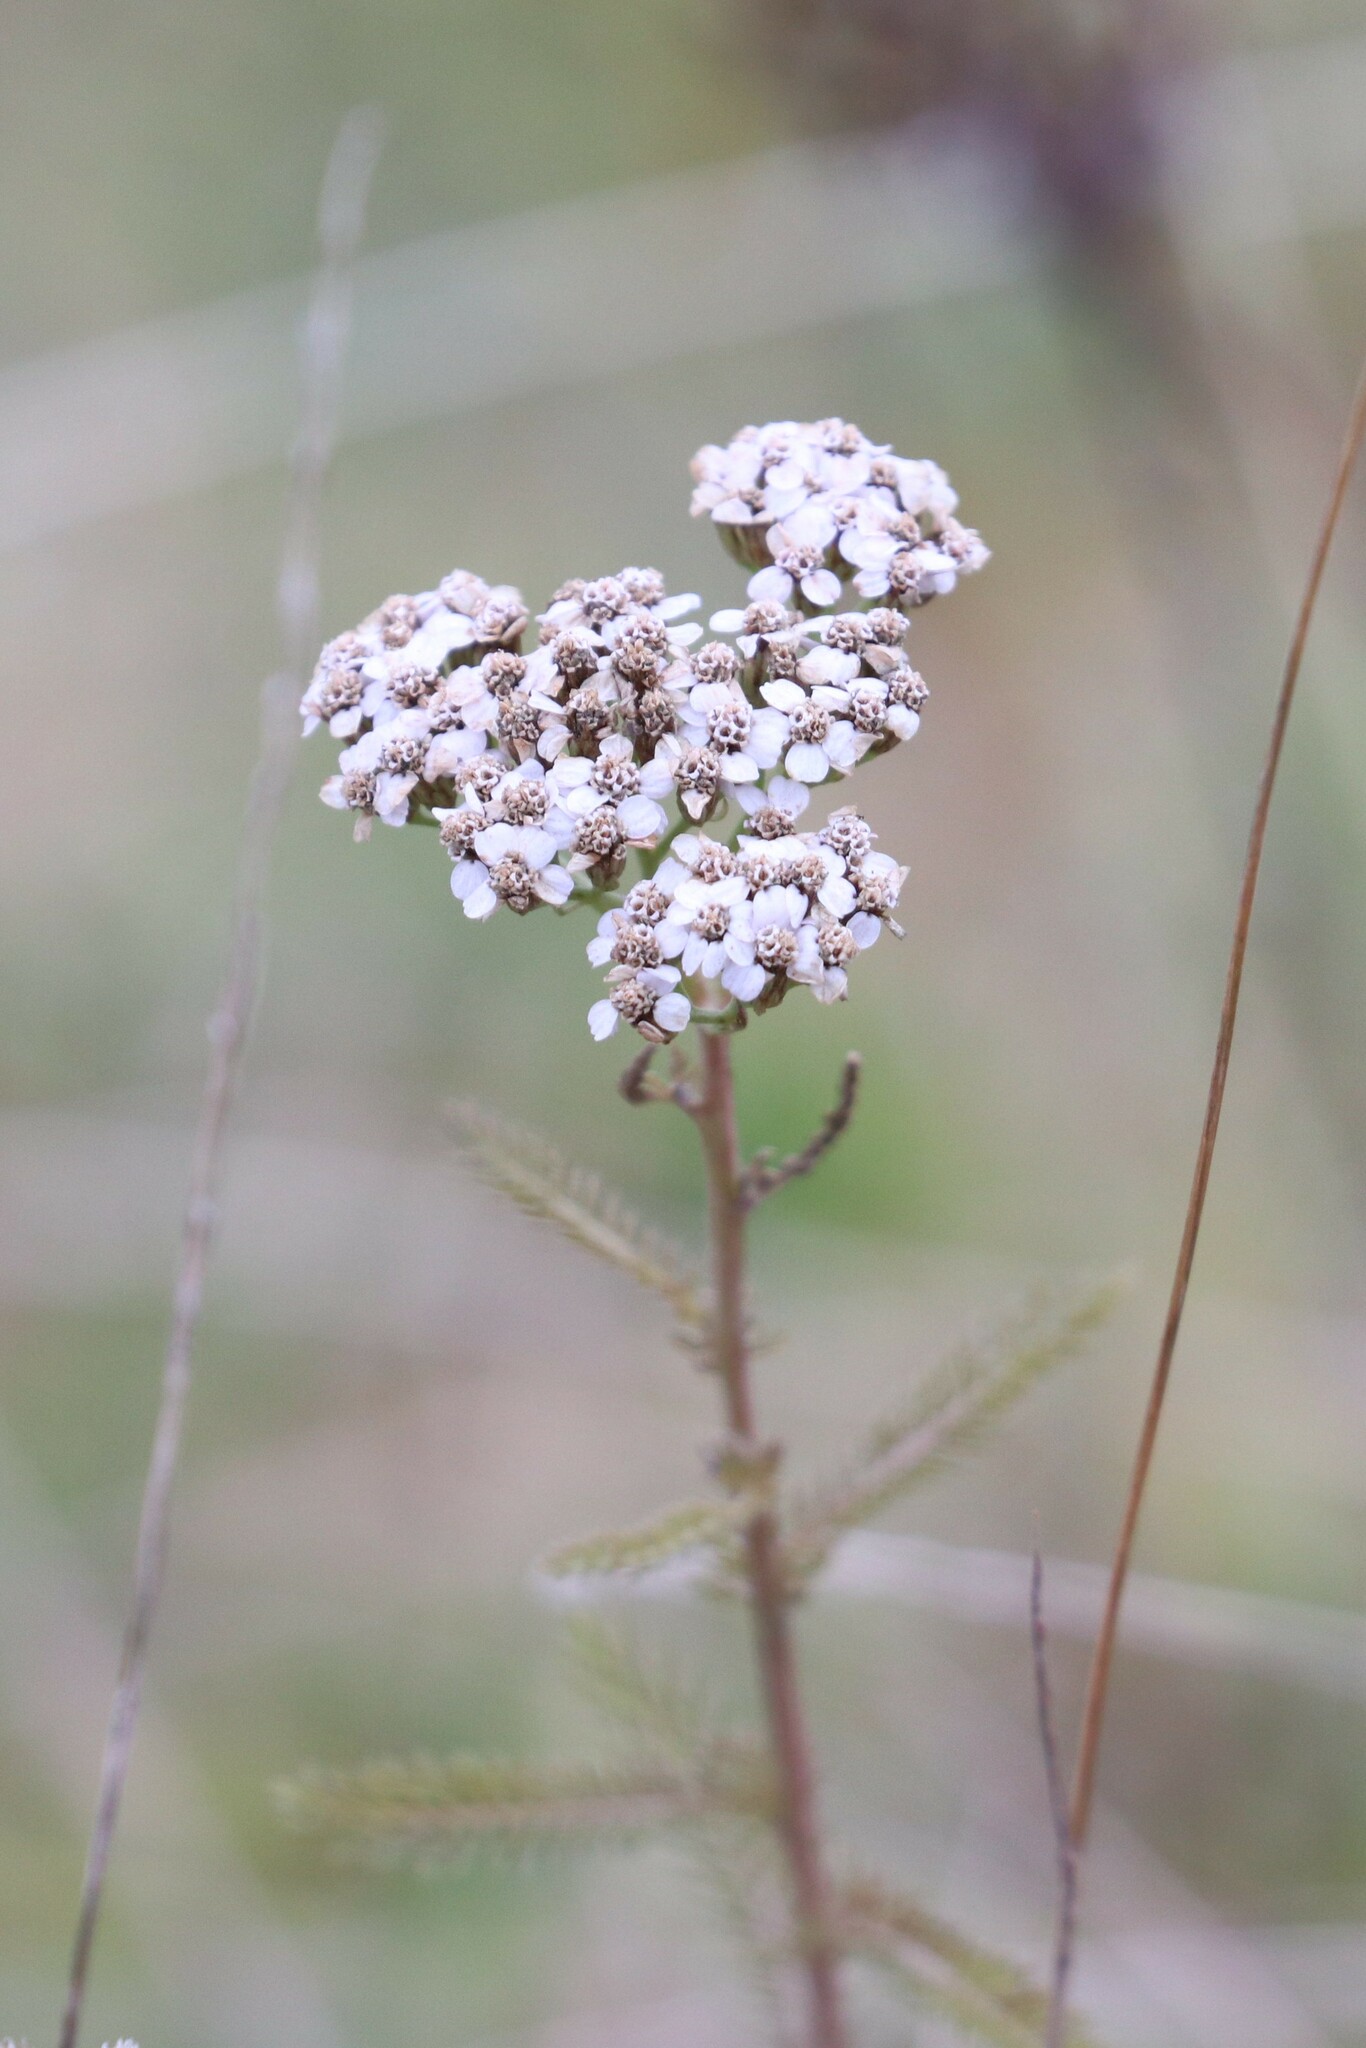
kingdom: Plantae
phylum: Tracheophyta
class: Magnoliopsida
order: Asterales
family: Asteraceae
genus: Achillea
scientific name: Achillea millefolium
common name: Yarrow
